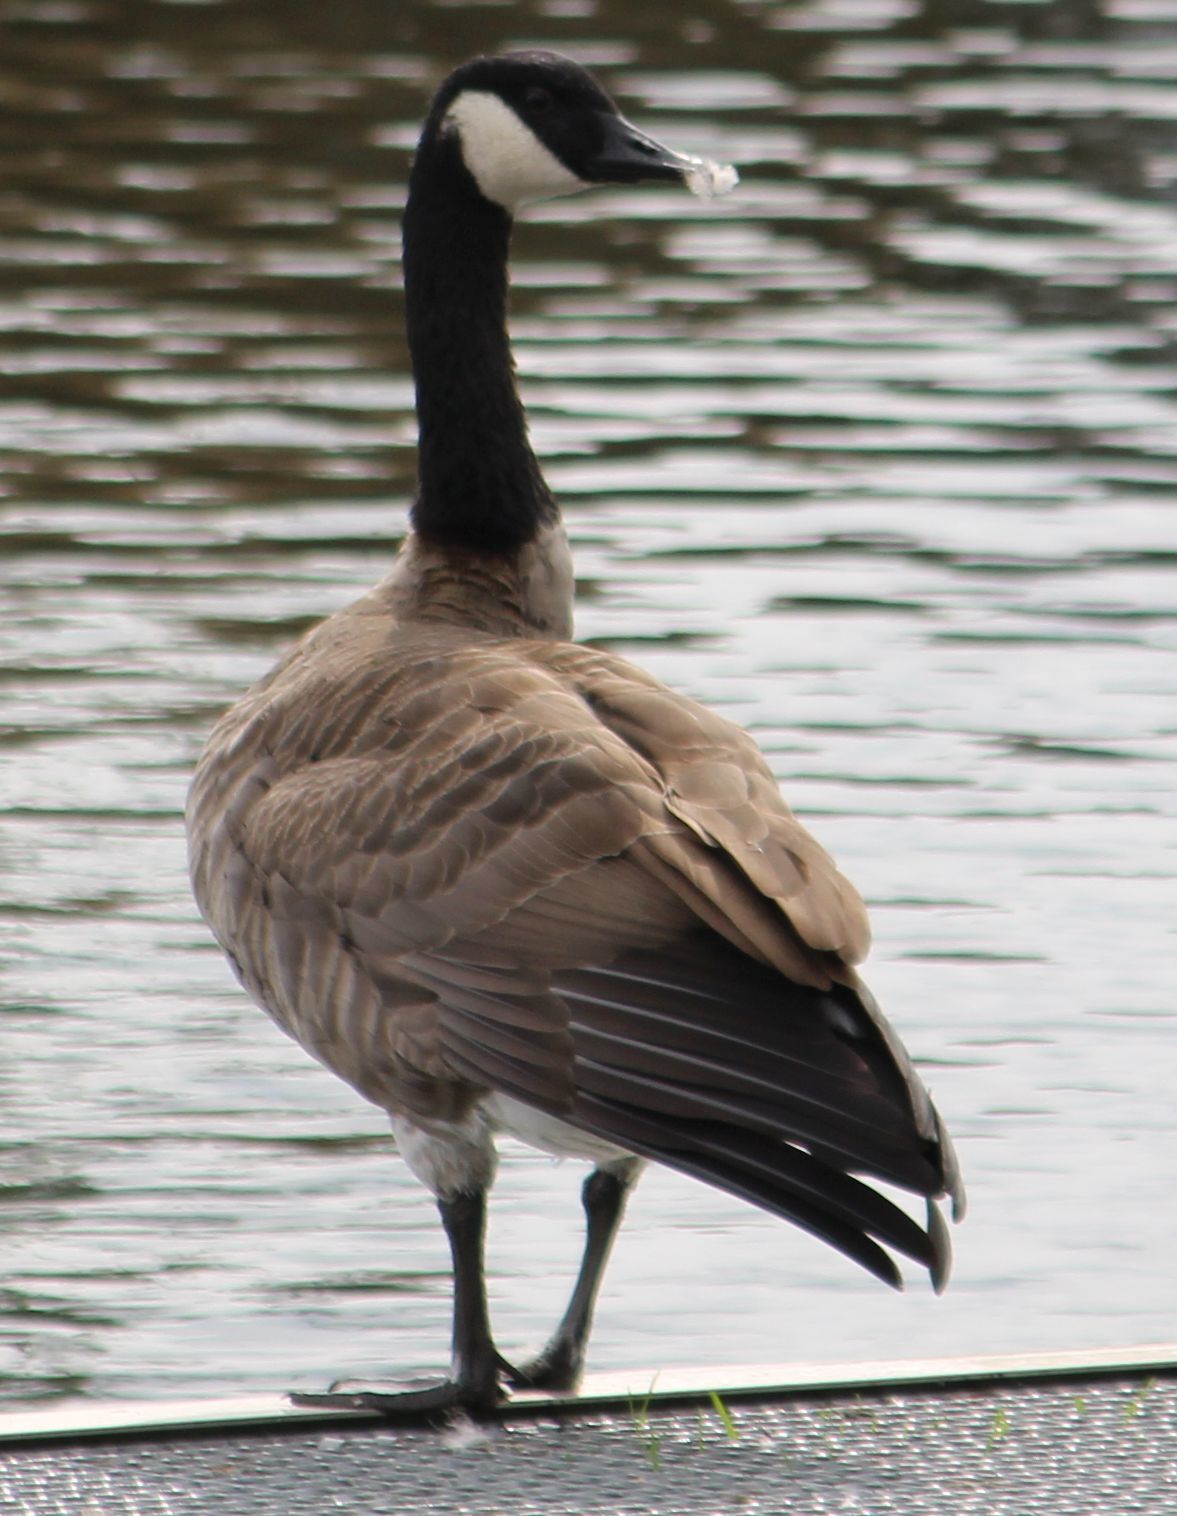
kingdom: Animalia
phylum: Chordata
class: Aves
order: Anseriformes
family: Anatidae
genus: Branta
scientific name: Branta canadensis
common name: Canada goose
